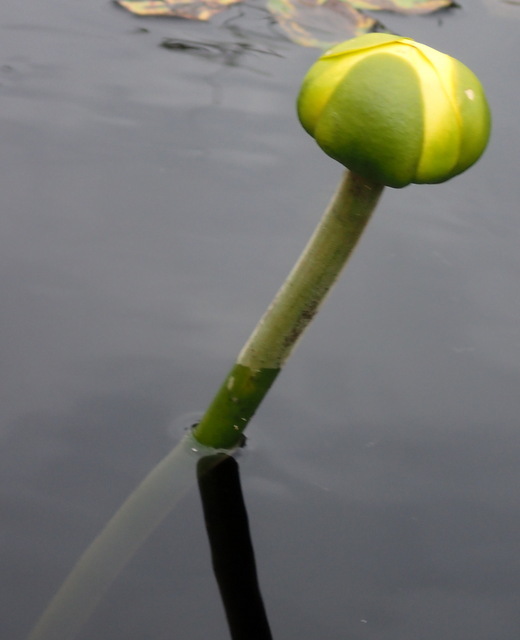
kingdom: Plantae
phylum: Tracheophyta
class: Magnoliopsida
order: Nymphaeales
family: Nymphaeaceae
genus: Nuphar
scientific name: Nuphar advena
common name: Spatter-dock
